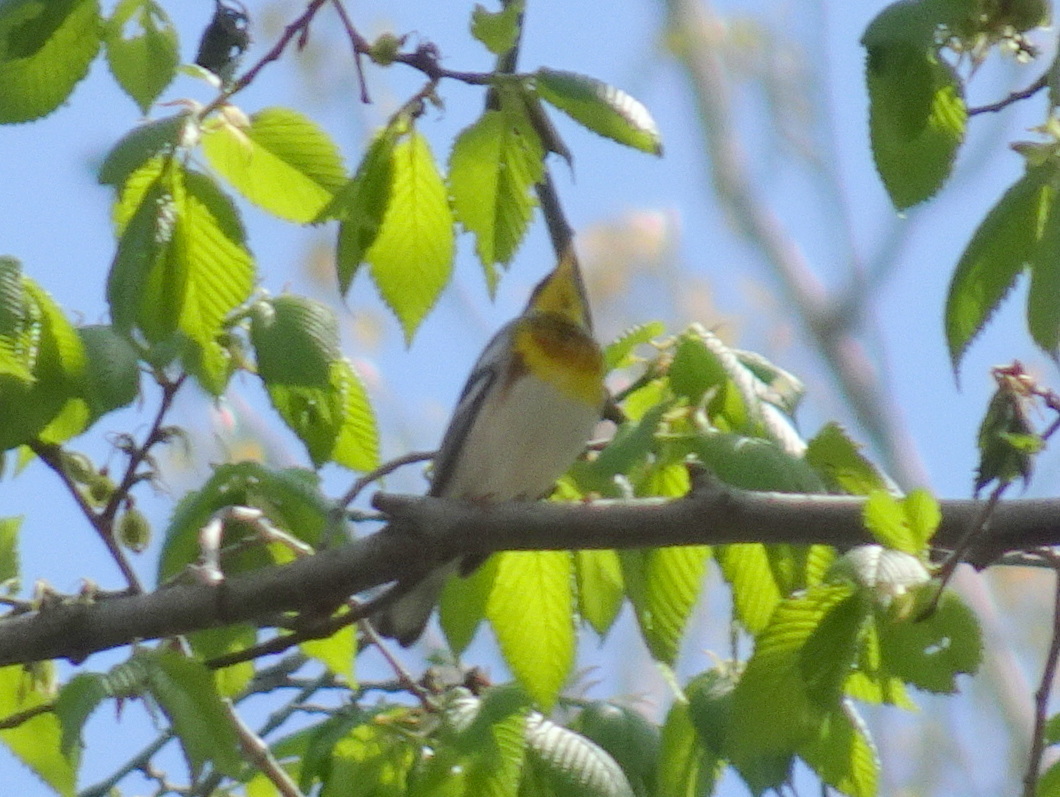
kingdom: Animalia
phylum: Chordata
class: Aves
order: Passeriformes
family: Parulidae
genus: Setophaga
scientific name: Setophaga americana
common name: Northern parula
